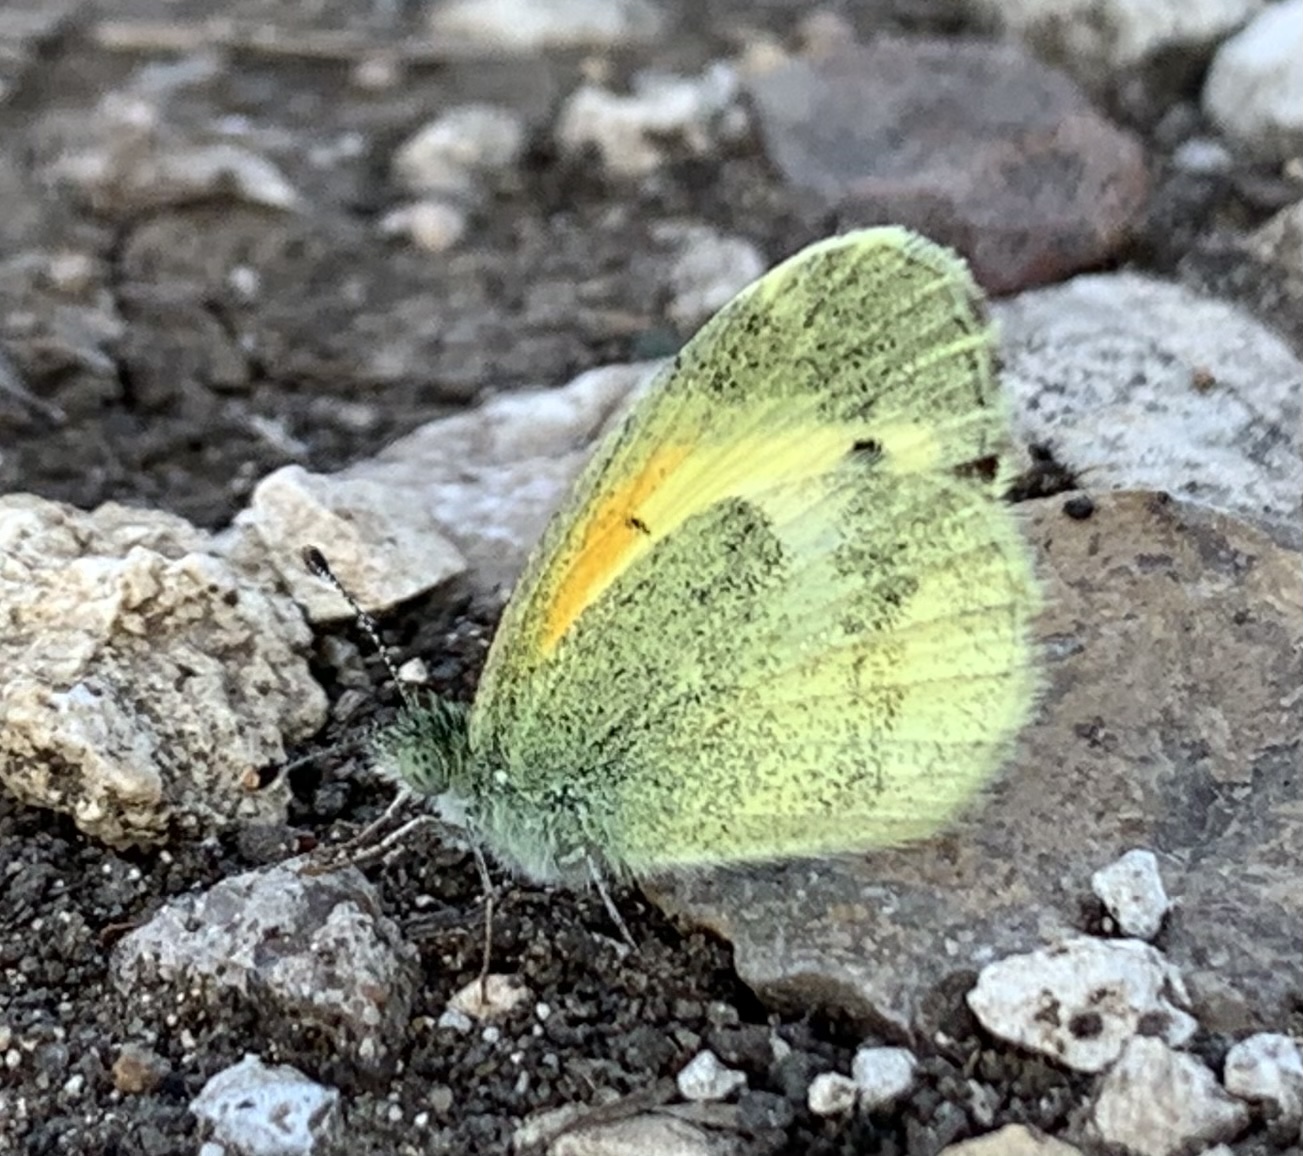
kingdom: Animalia
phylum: Arthropoda
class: Insecta
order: Lepidoptera
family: Pieridae
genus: Nathalis
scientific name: Nathalis iole
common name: Dainty sulphur
